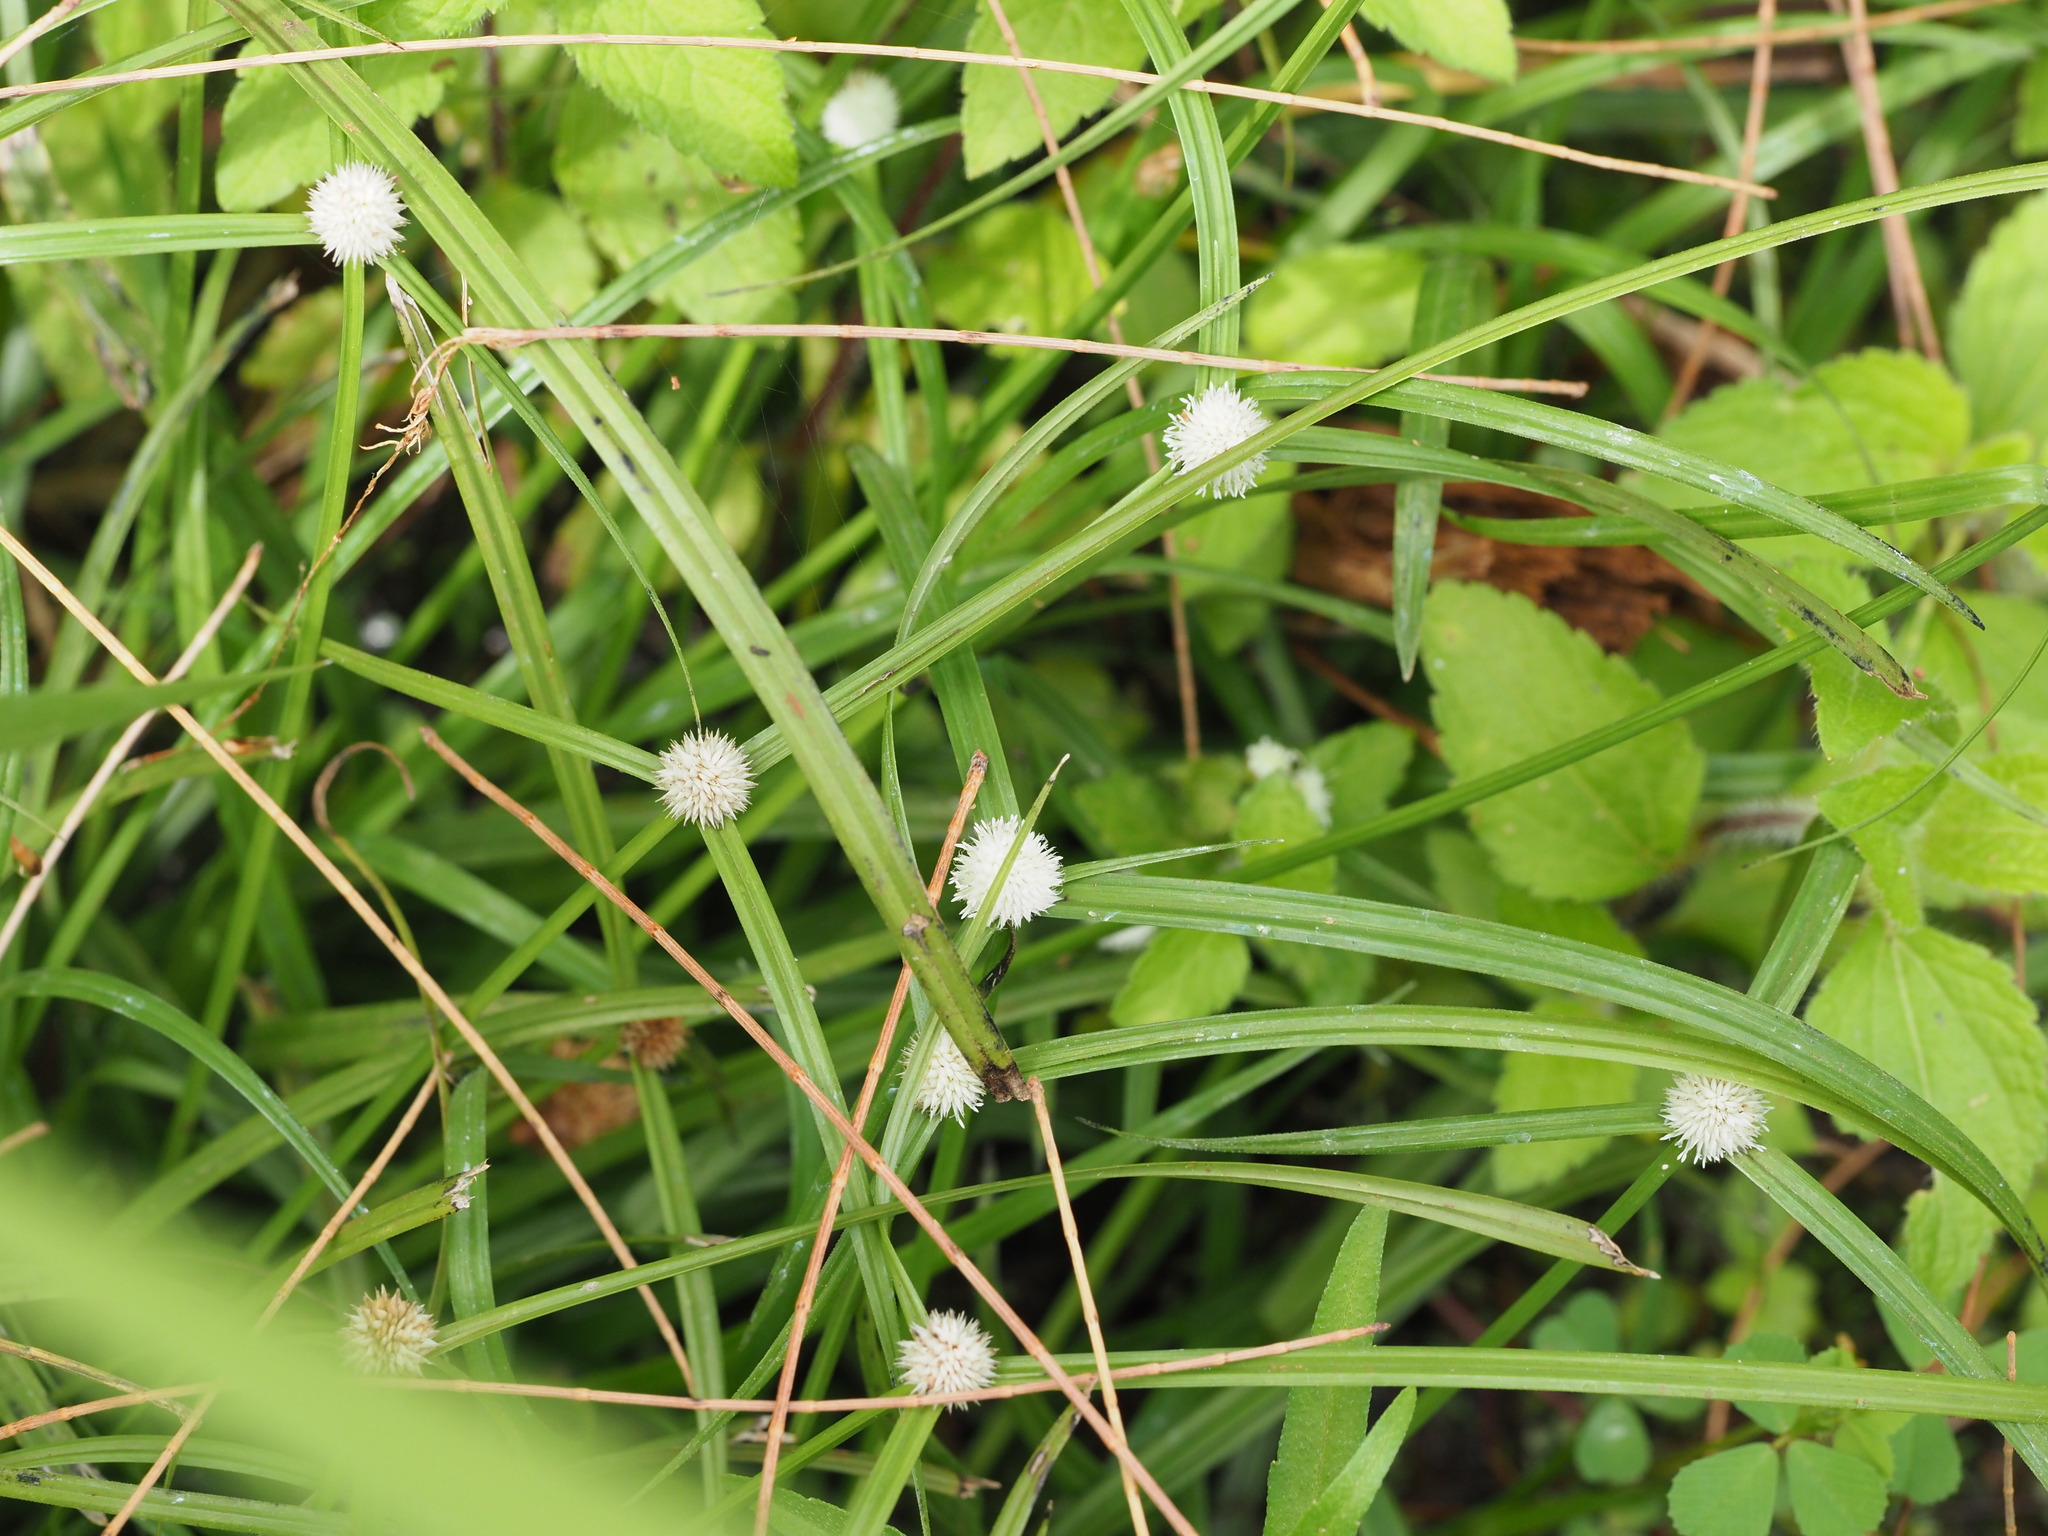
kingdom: Plantae
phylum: Tracheophyta
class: Liliopsida
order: Poales
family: Cyperaceae
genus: Cyperus
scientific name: Cyperus mindorensis
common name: Flatsedge
